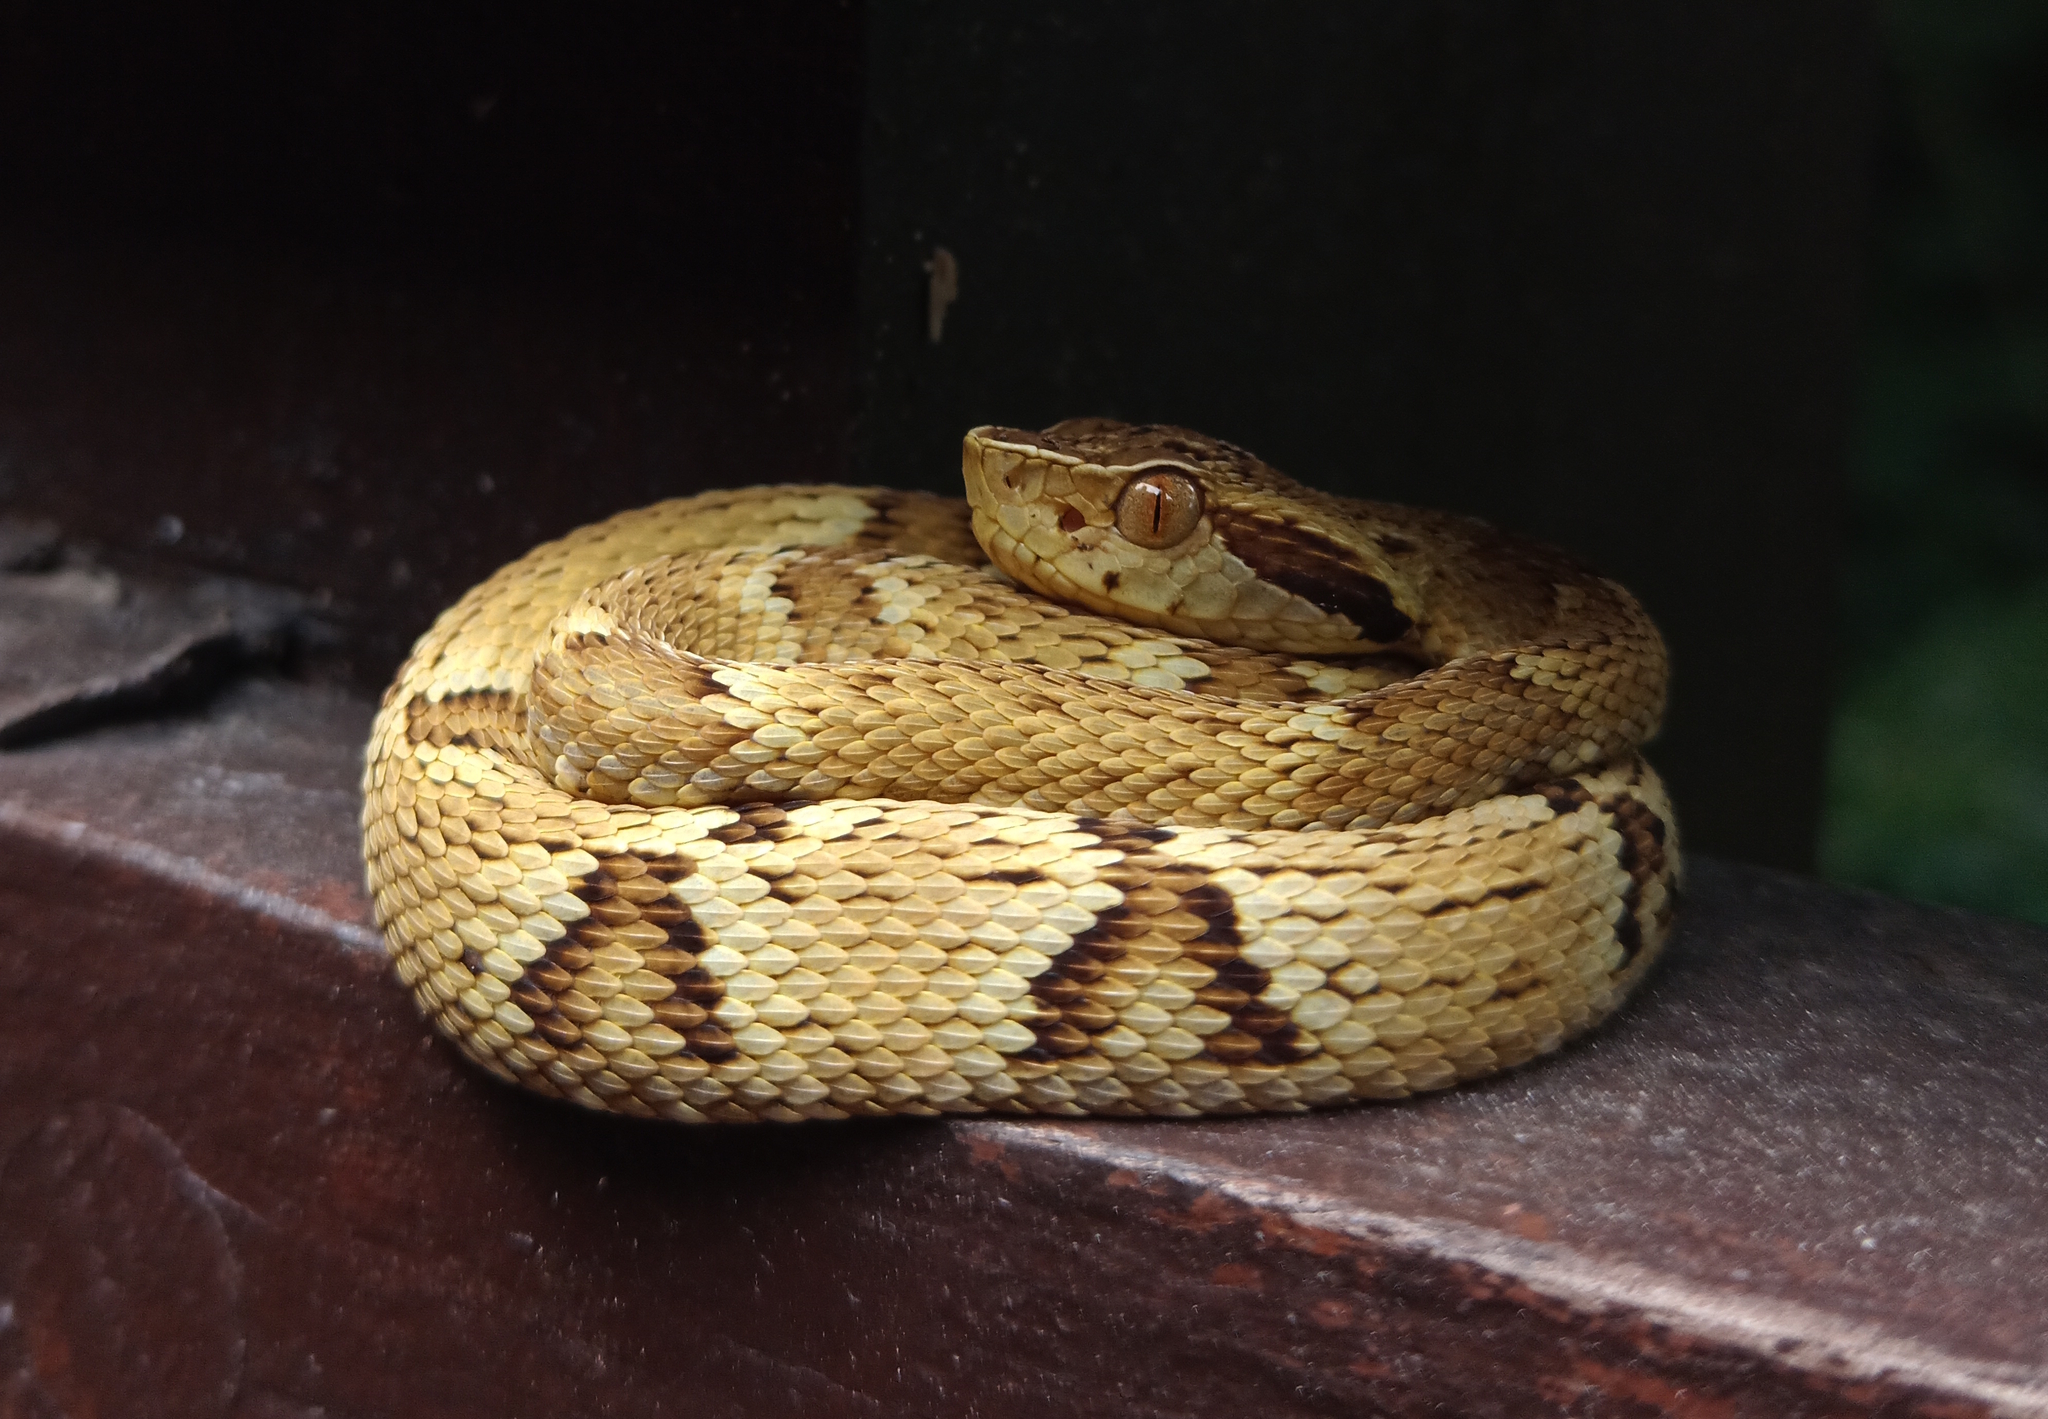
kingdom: Animalia
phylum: Chordata
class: Squamata
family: Viperidae
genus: Bothrops
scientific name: Bothrops jararaca
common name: Jararaca
